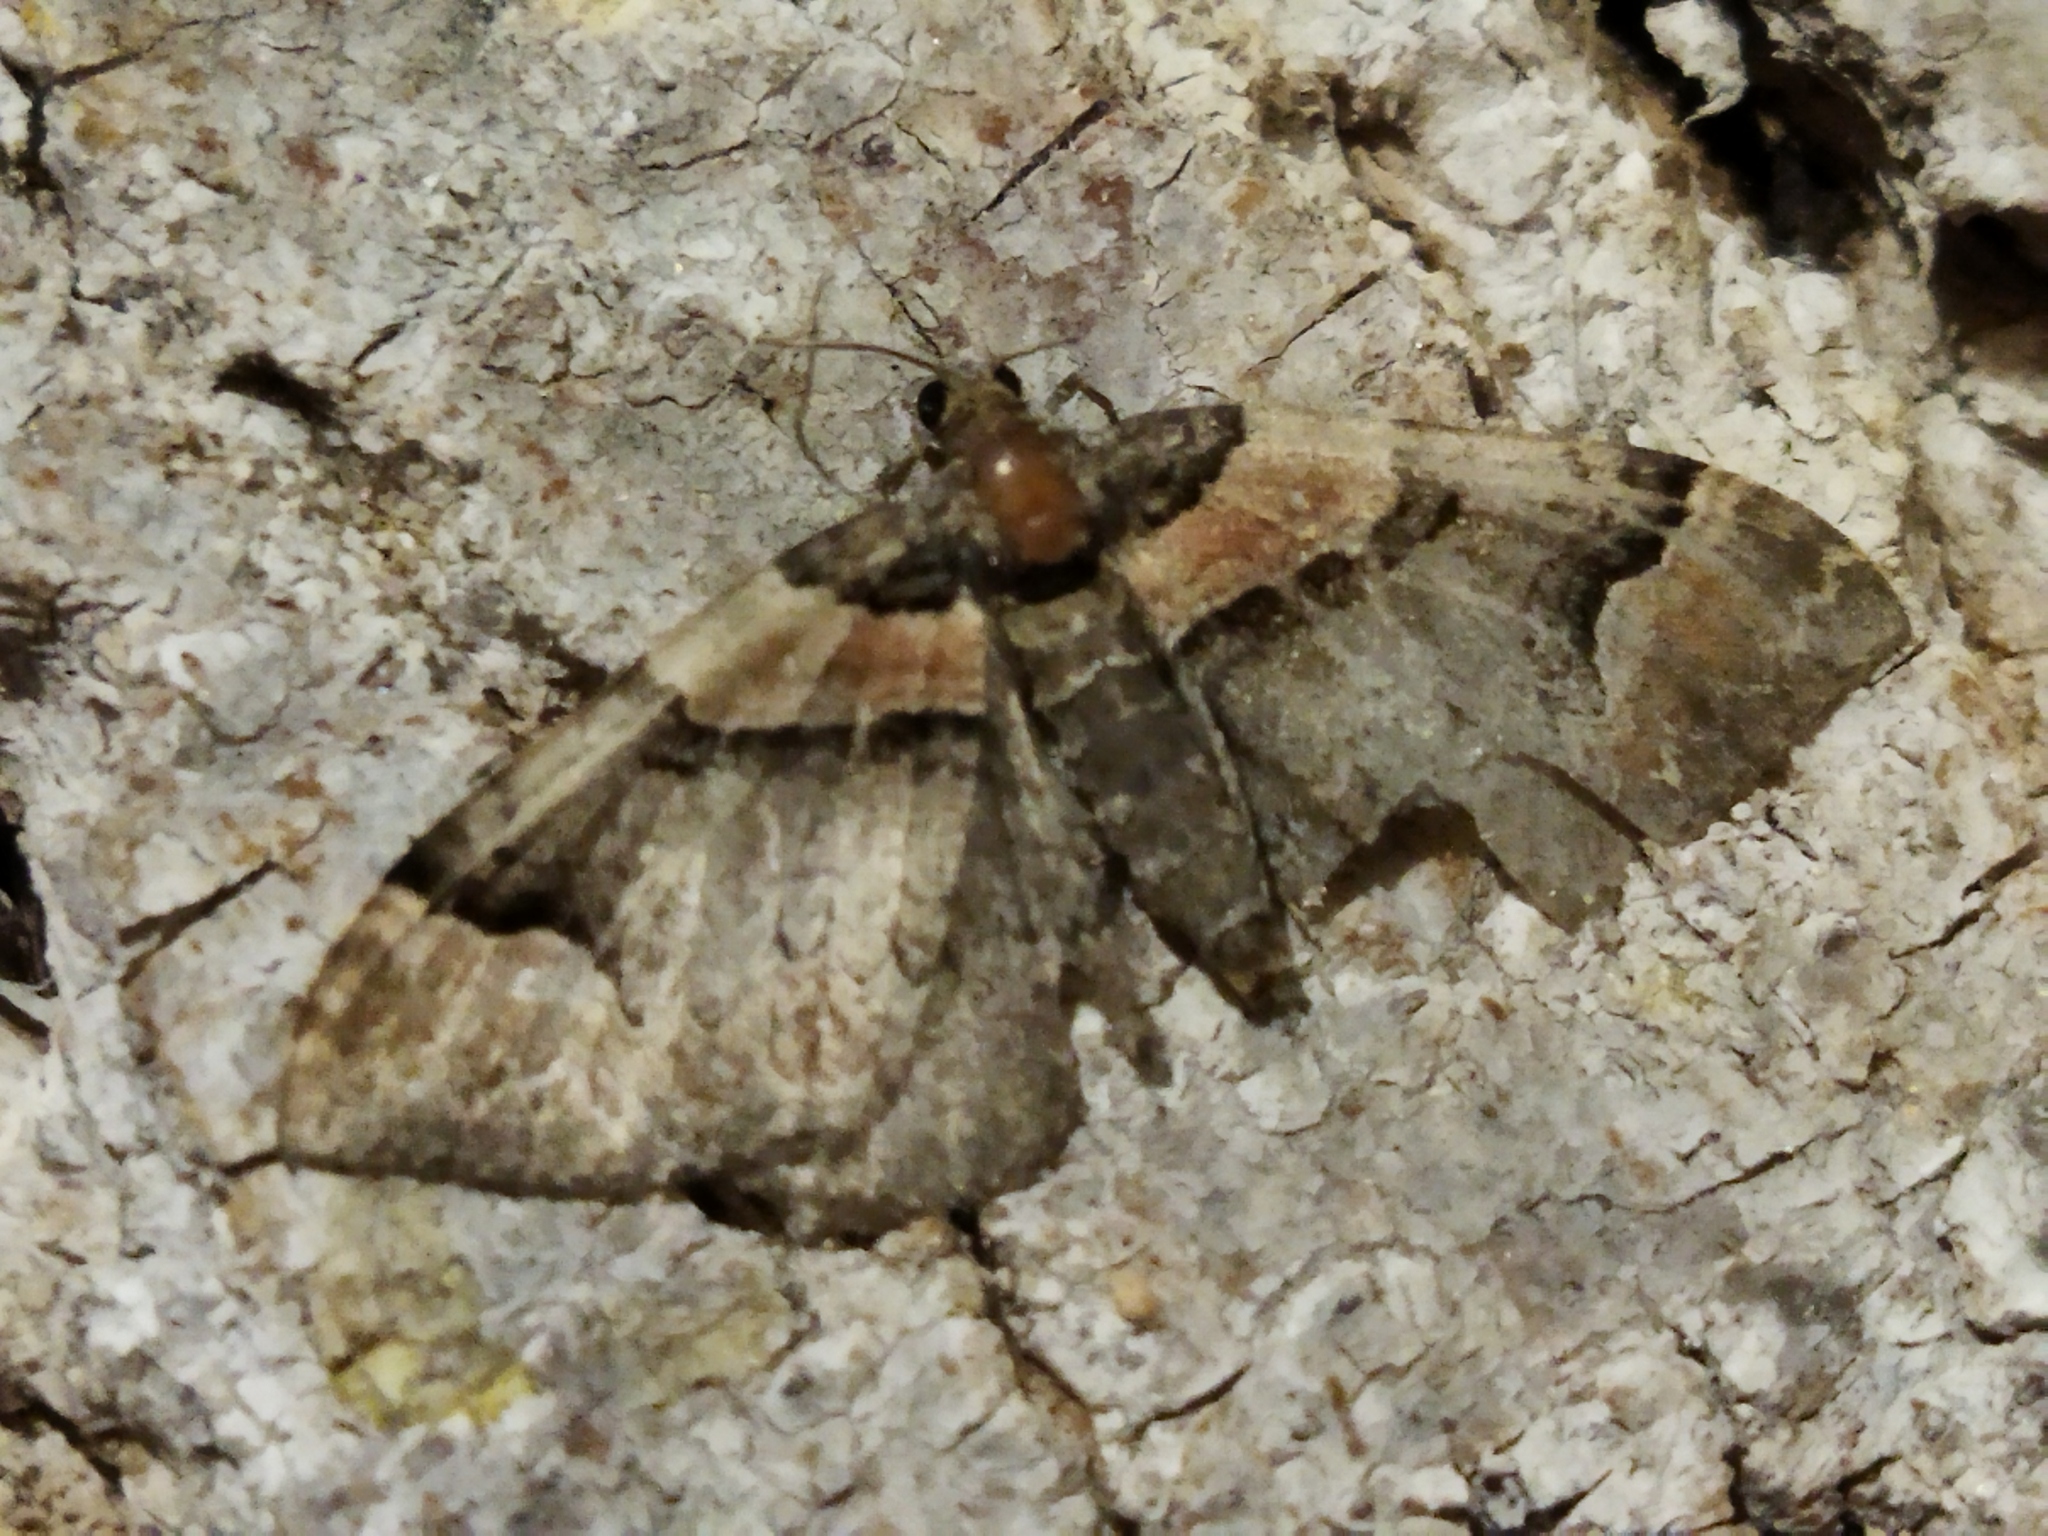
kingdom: Animalia
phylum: Arthropoda
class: Insecta
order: Lepidoptera
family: Geometridae
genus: Catarhoe
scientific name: Catarhoe rubidata
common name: Ruddy carpet
